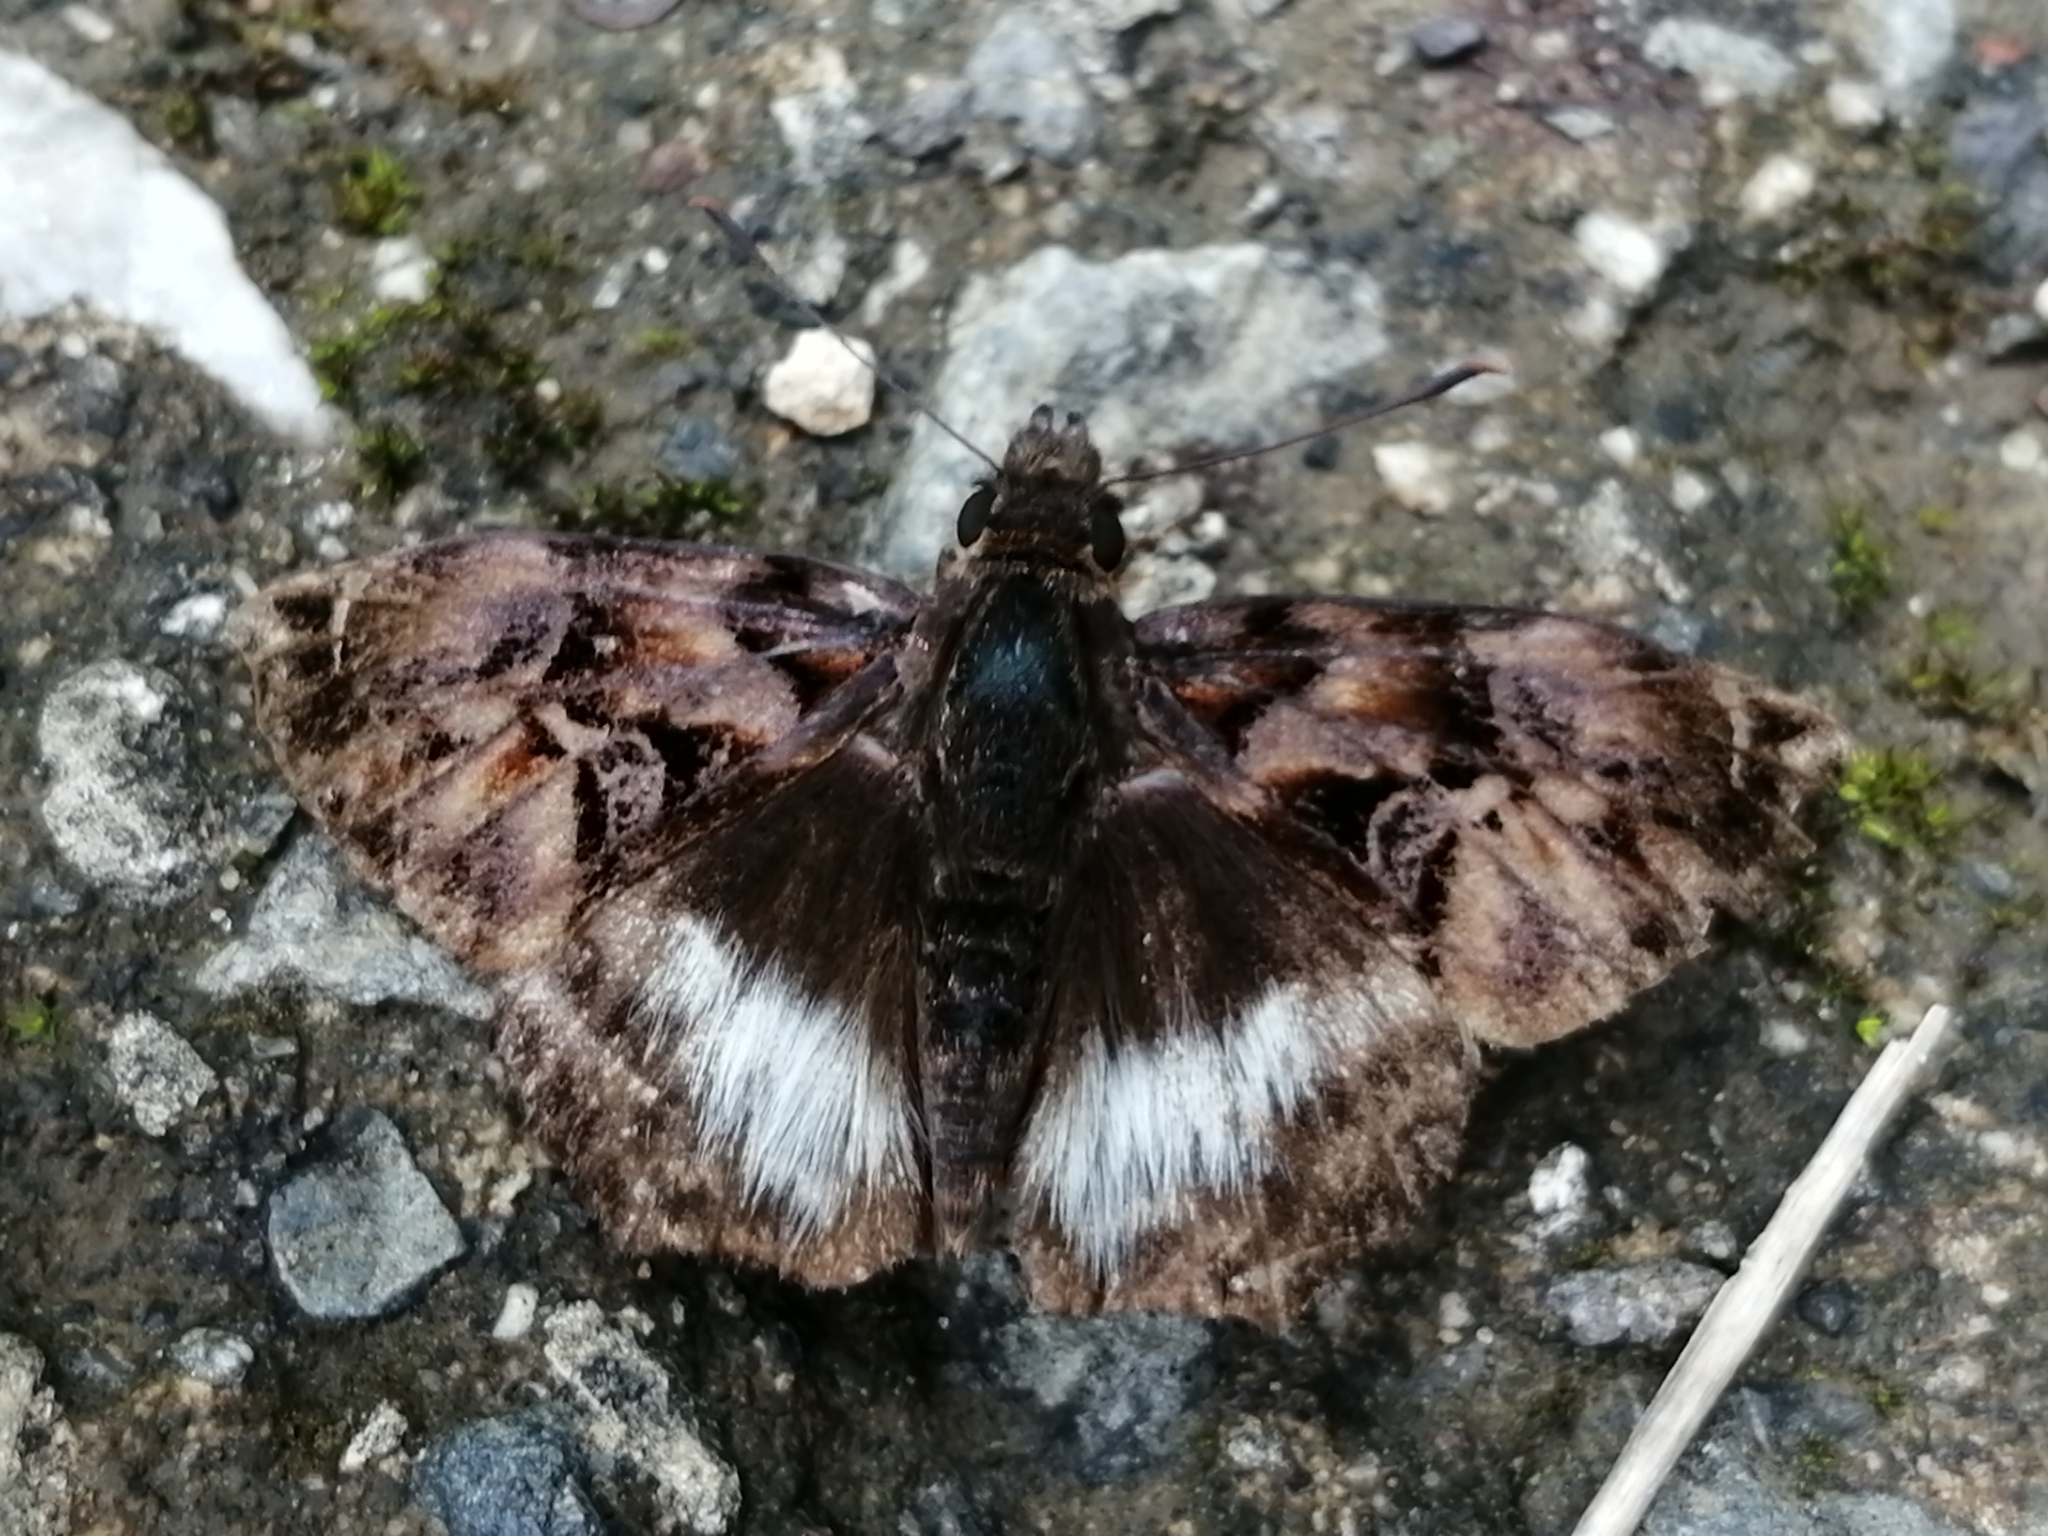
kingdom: Animalia
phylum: Arthropoda
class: Insecta
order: Lepidoptera
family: Hesperiidae
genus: Noctuana
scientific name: Noctuana lactifera
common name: Cryptic skipper
